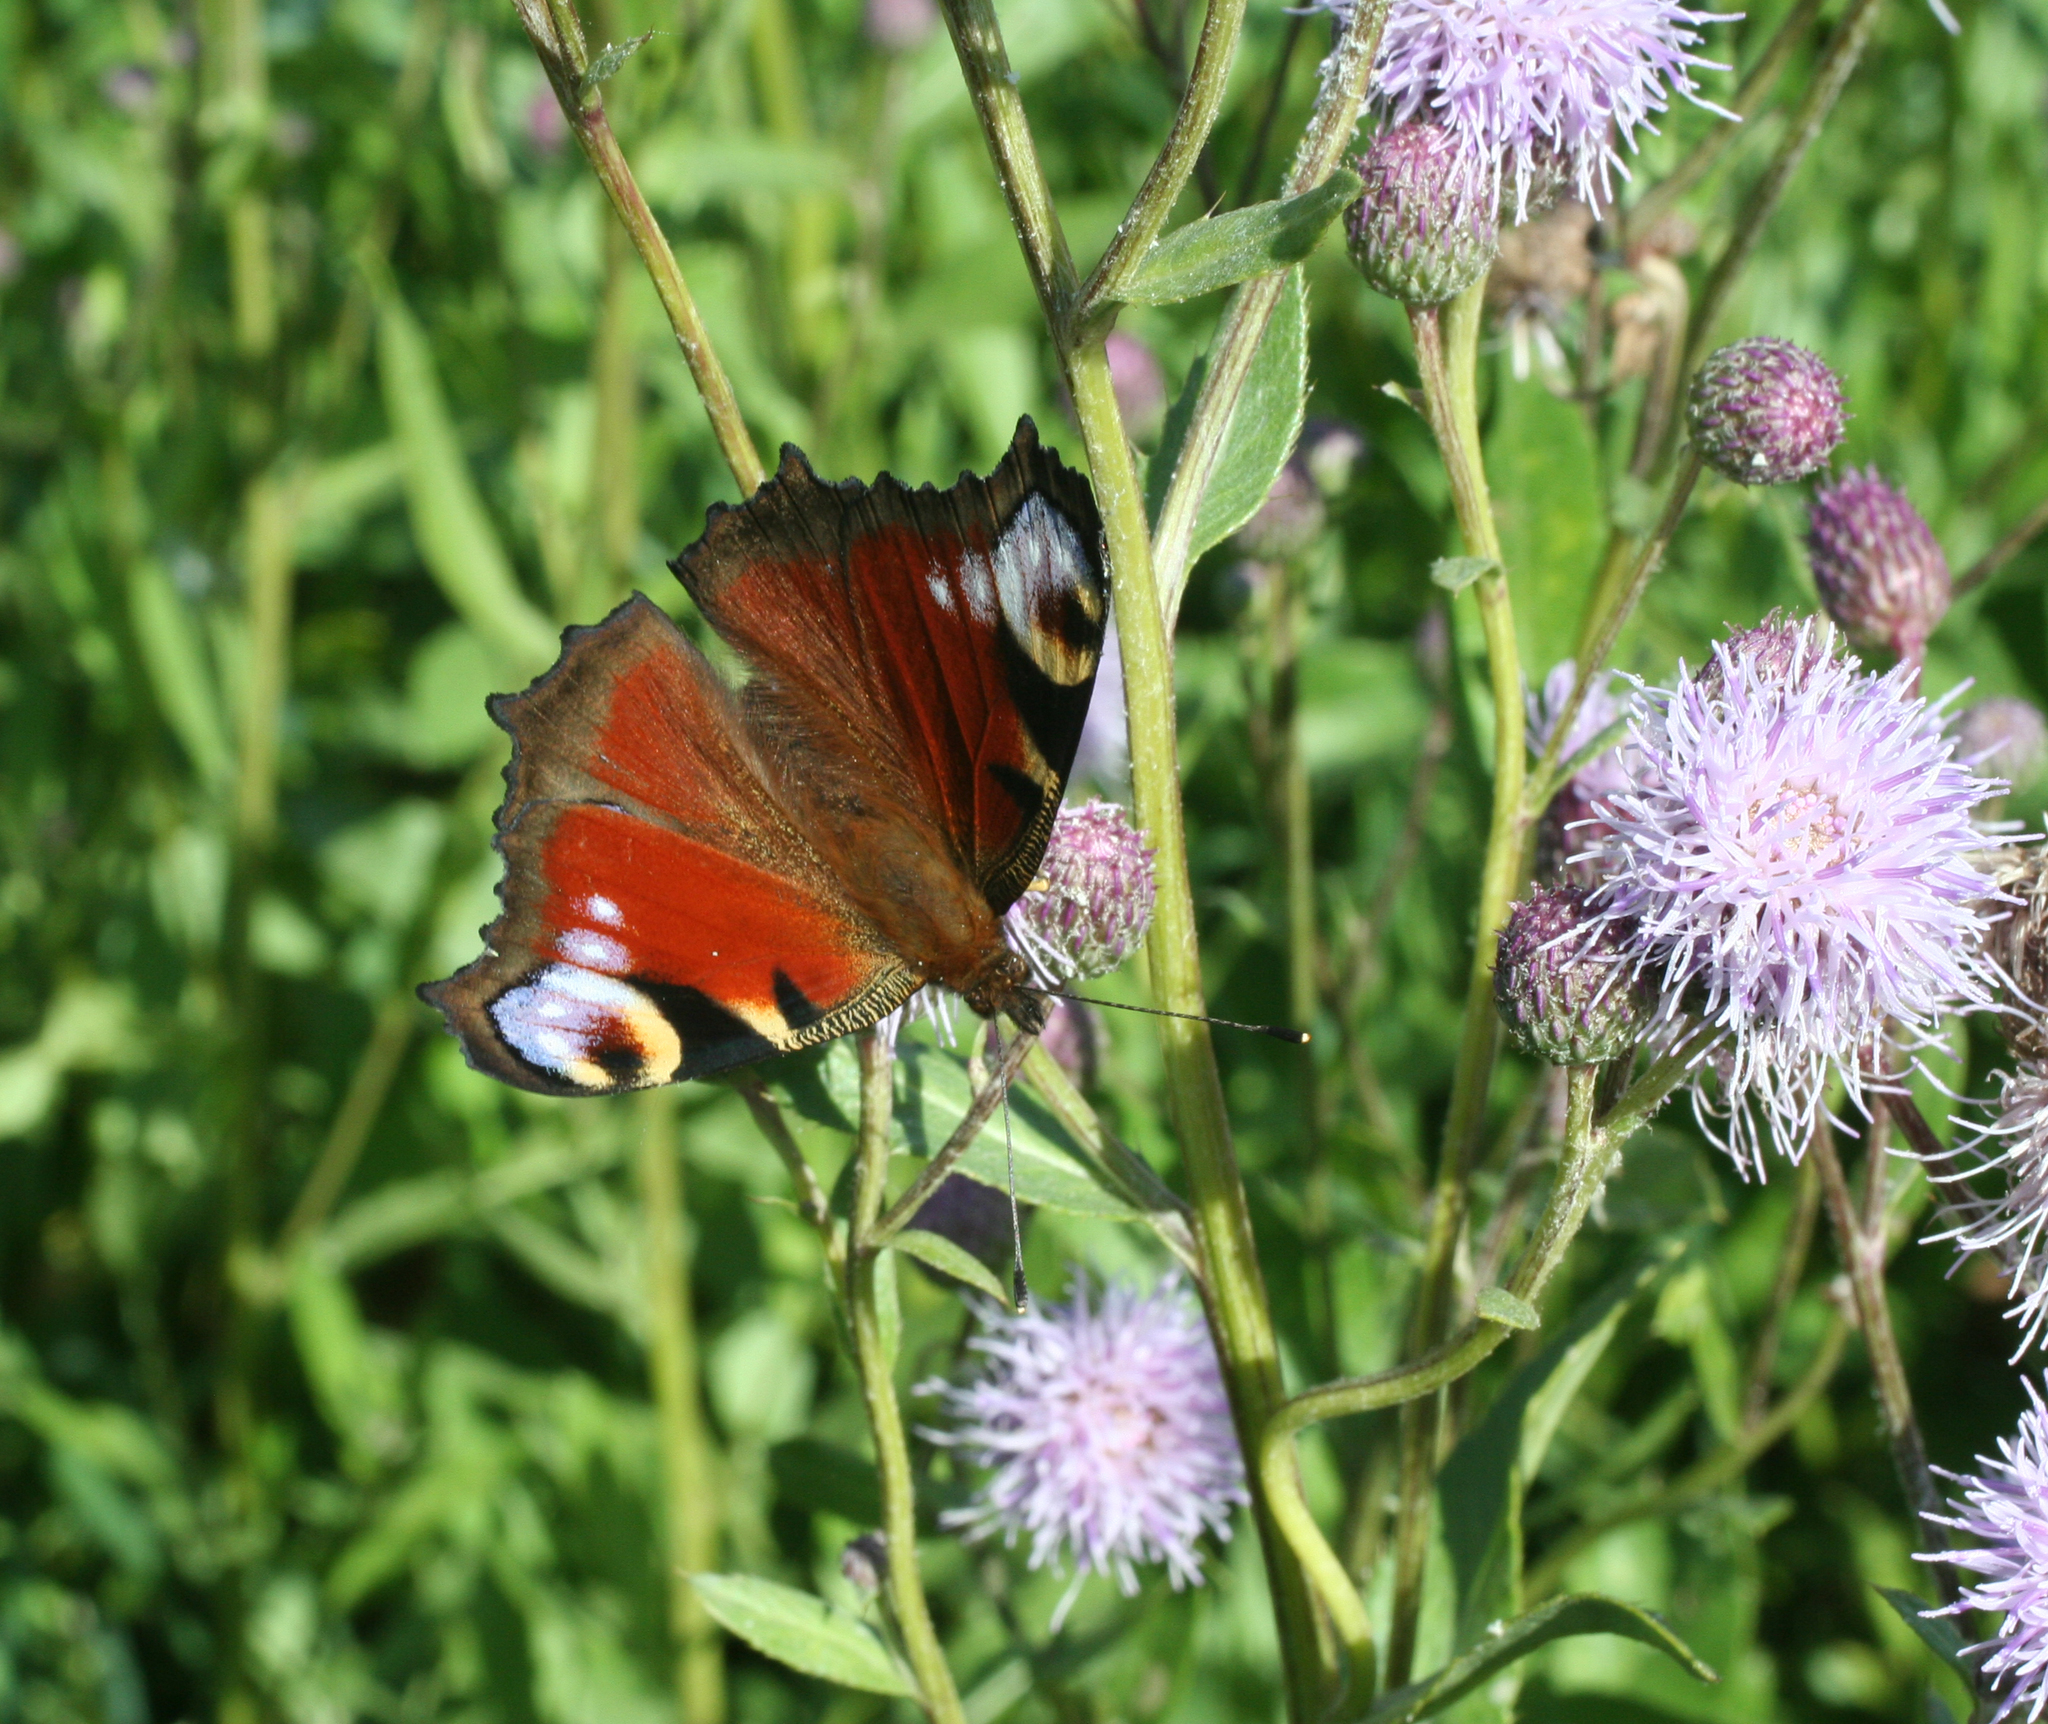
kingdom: Animalia
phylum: Arthropoda
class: Insecta
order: Lepidoptera
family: Nymphalidae
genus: Aglais
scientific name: Aglais io
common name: Peacock
